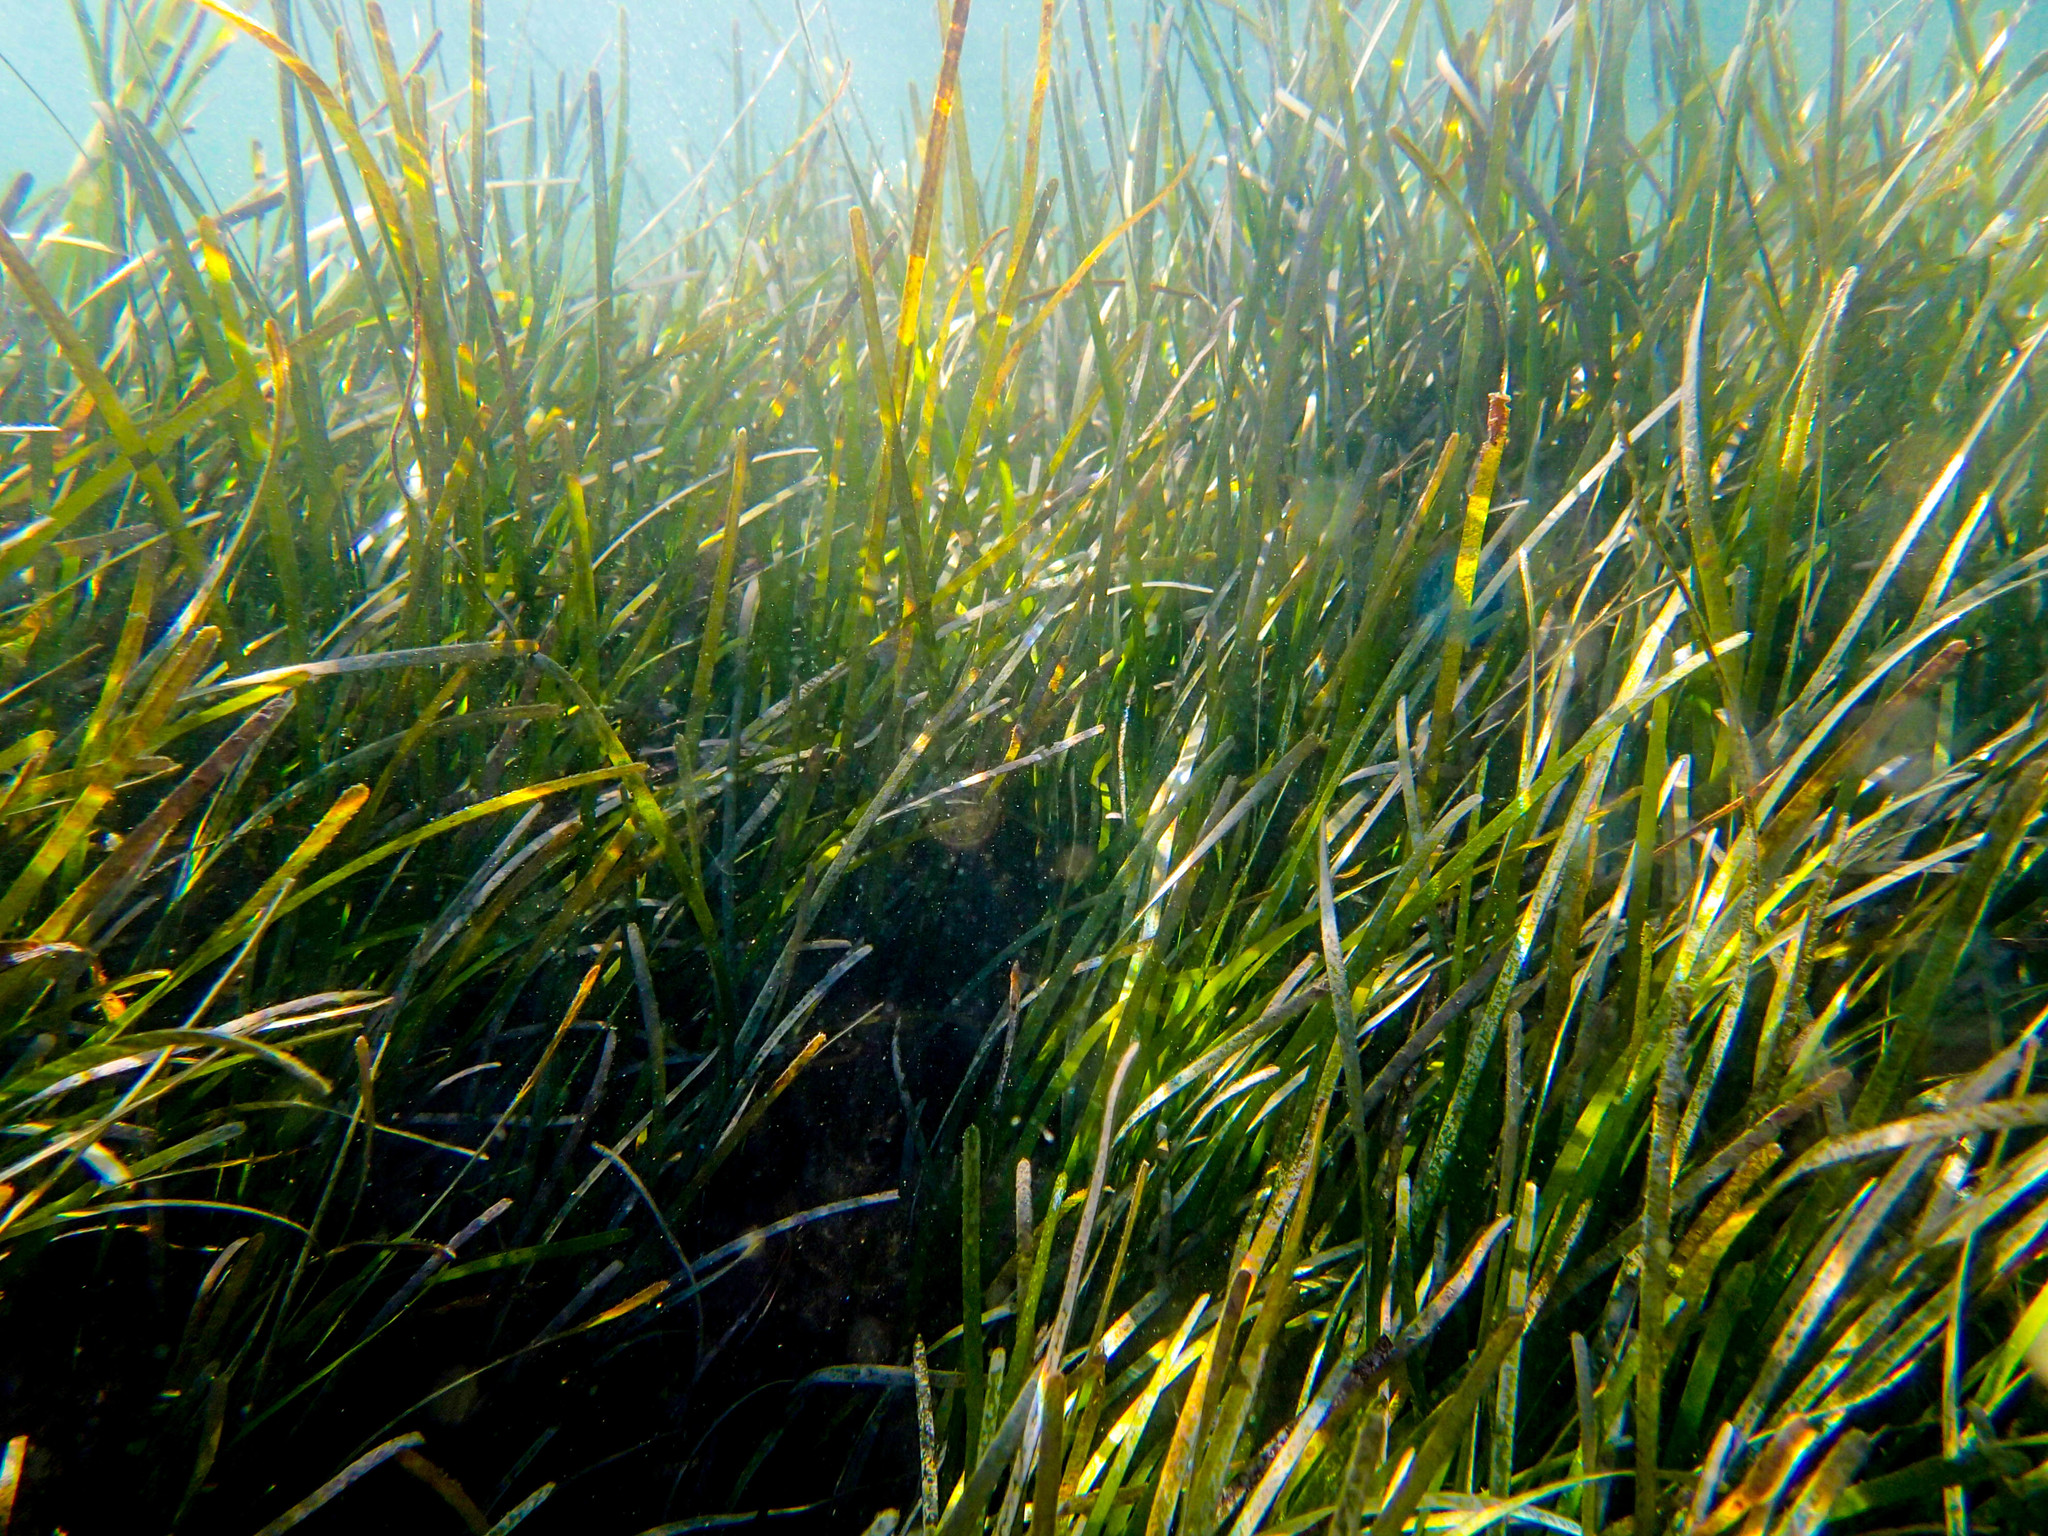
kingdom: Plantae
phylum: Tracheophyta
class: Liliopsida
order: Alismatales
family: Cymodoceaceae
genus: Cymodocea
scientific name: Cymodocea nodosa
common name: Slender seagrass
